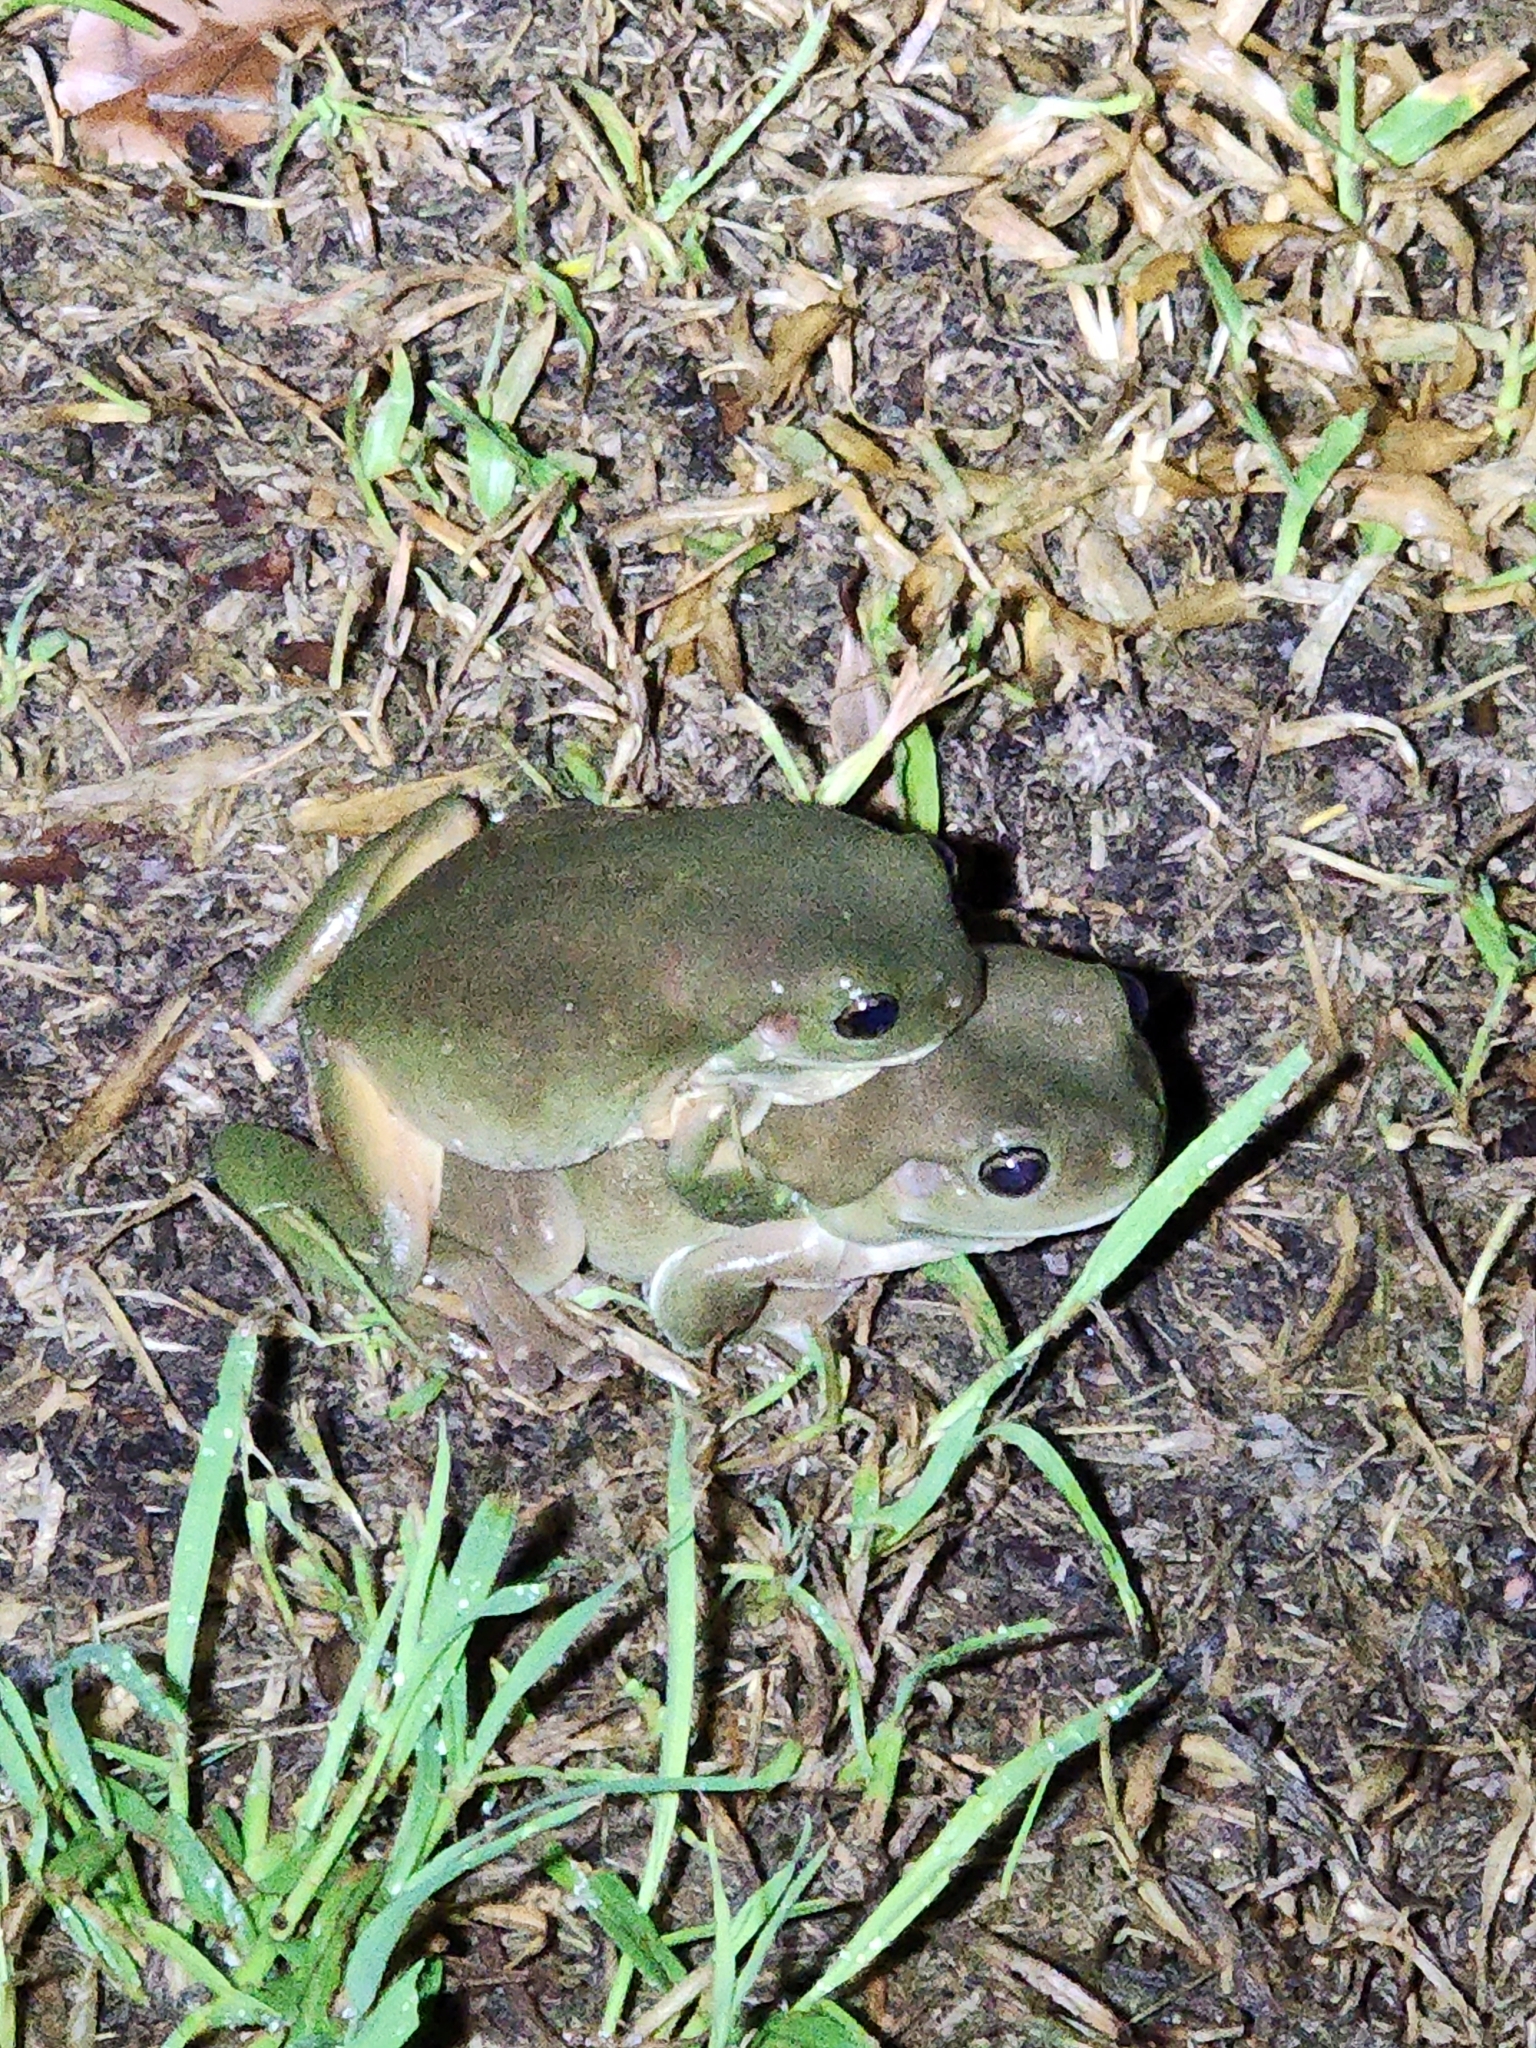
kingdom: Animalia
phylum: Chordata
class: Amphibia
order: Anura
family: Pelodryadidae
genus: Ranoidea
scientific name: Ranoidea caerulea
